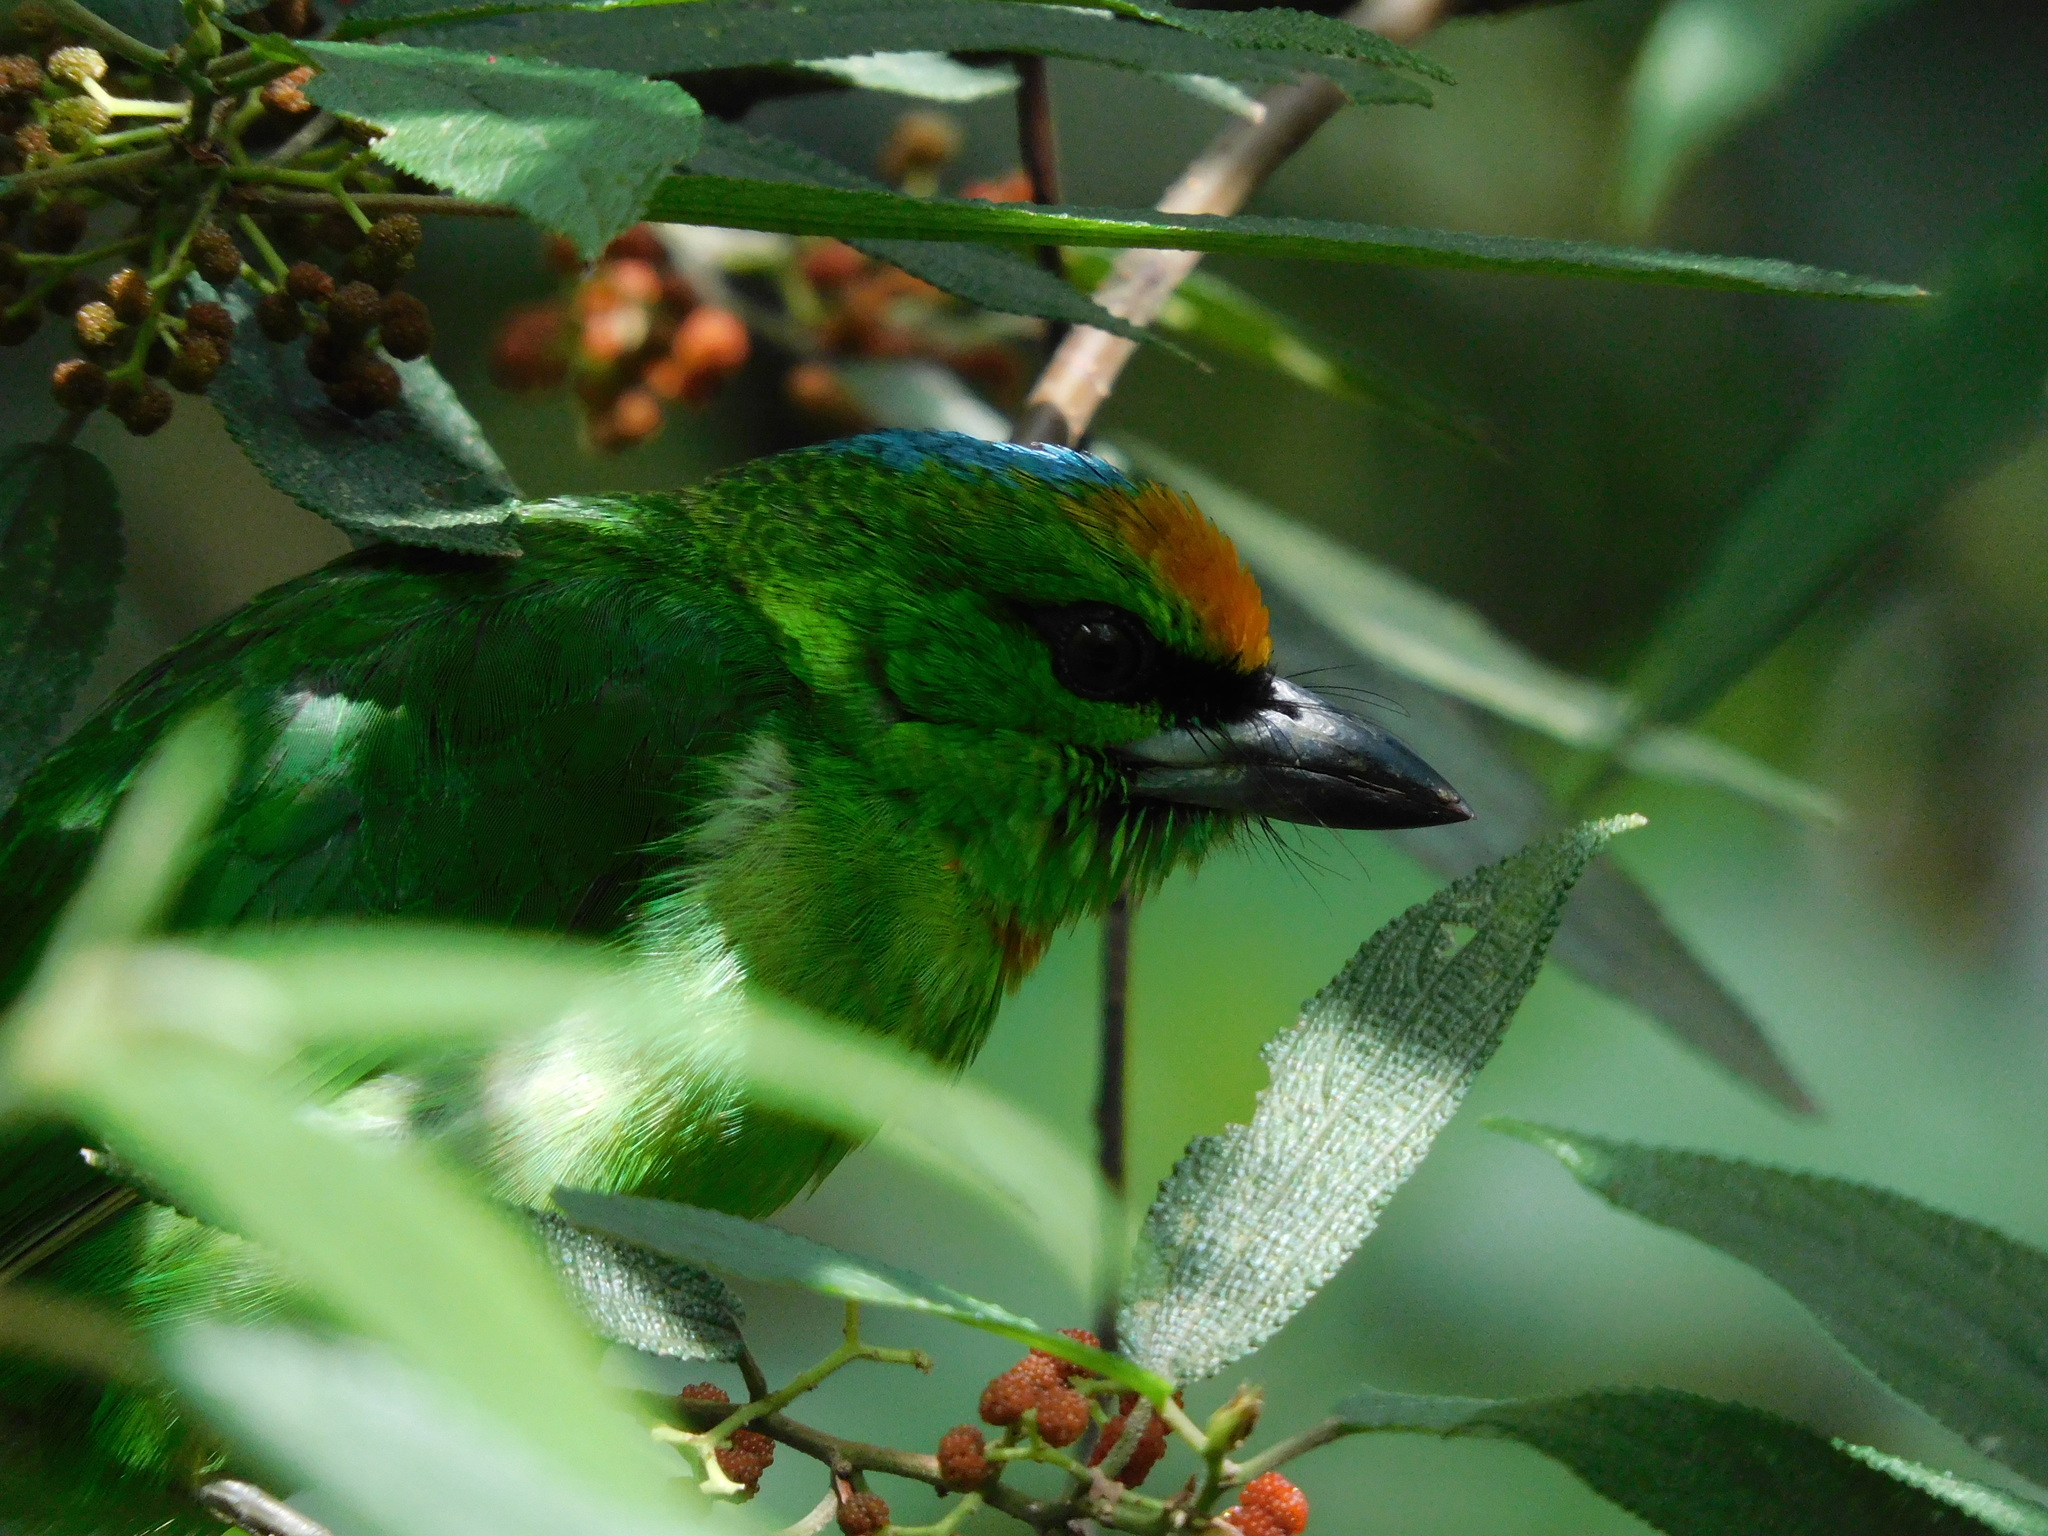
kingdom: Animalia
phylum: Chordata
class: Aves
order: Piciformes
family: Megalaimidae
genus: Psilopogon
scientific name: Psilopogon armillaris
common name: Flame-fronted barbet
